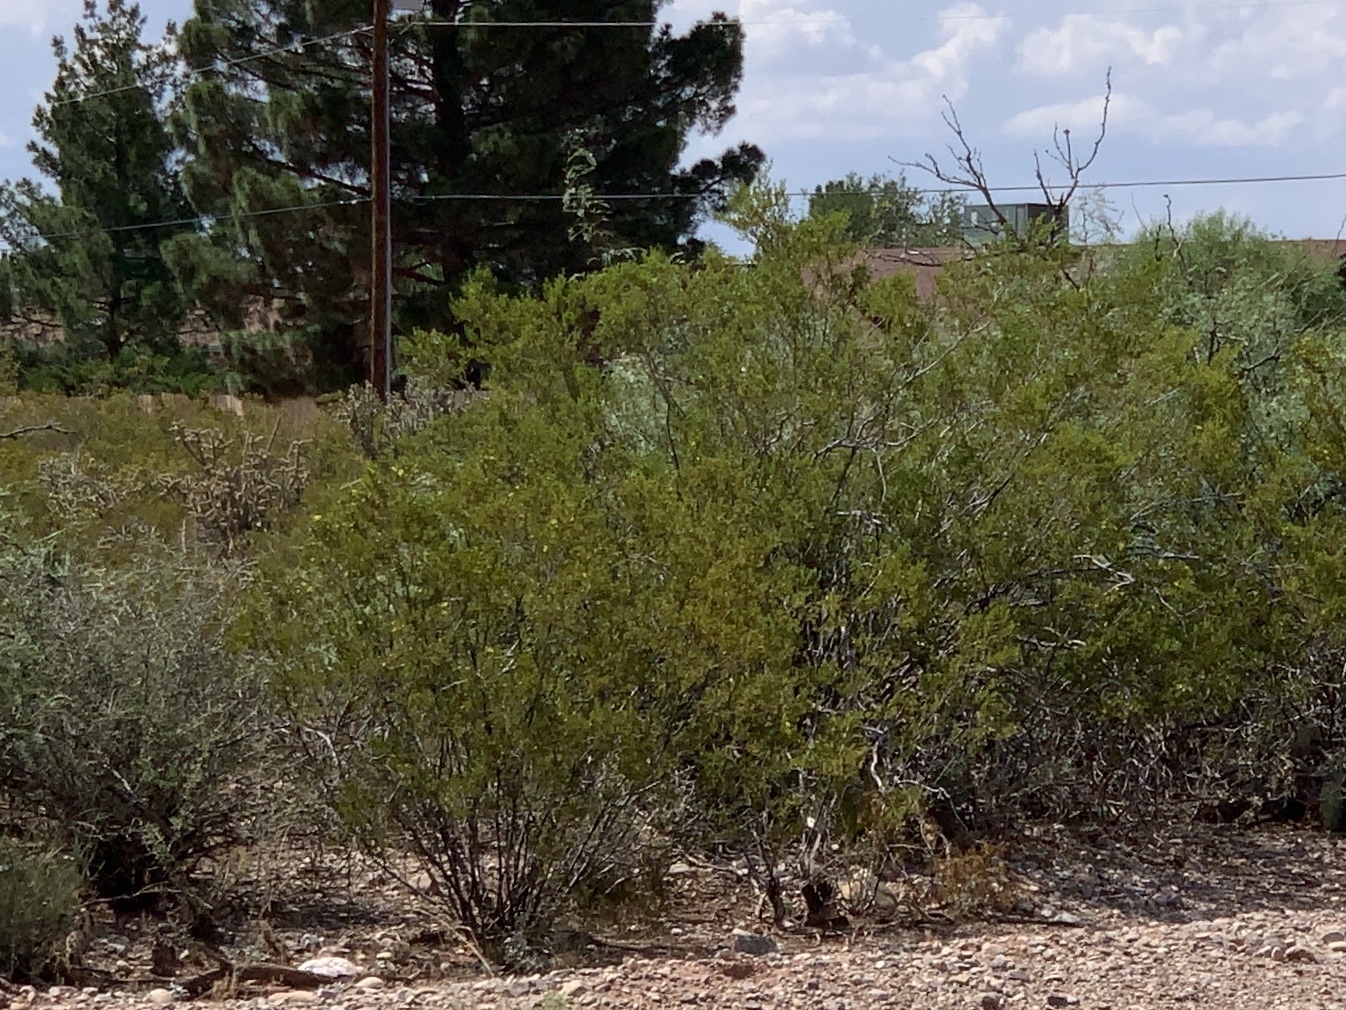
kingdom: Plantae
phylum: Tracheophyta
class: Magnoliopsida
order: Zygophyllales
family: Zygophyllaceae
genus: Larrea
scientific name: Larrea tridentata
